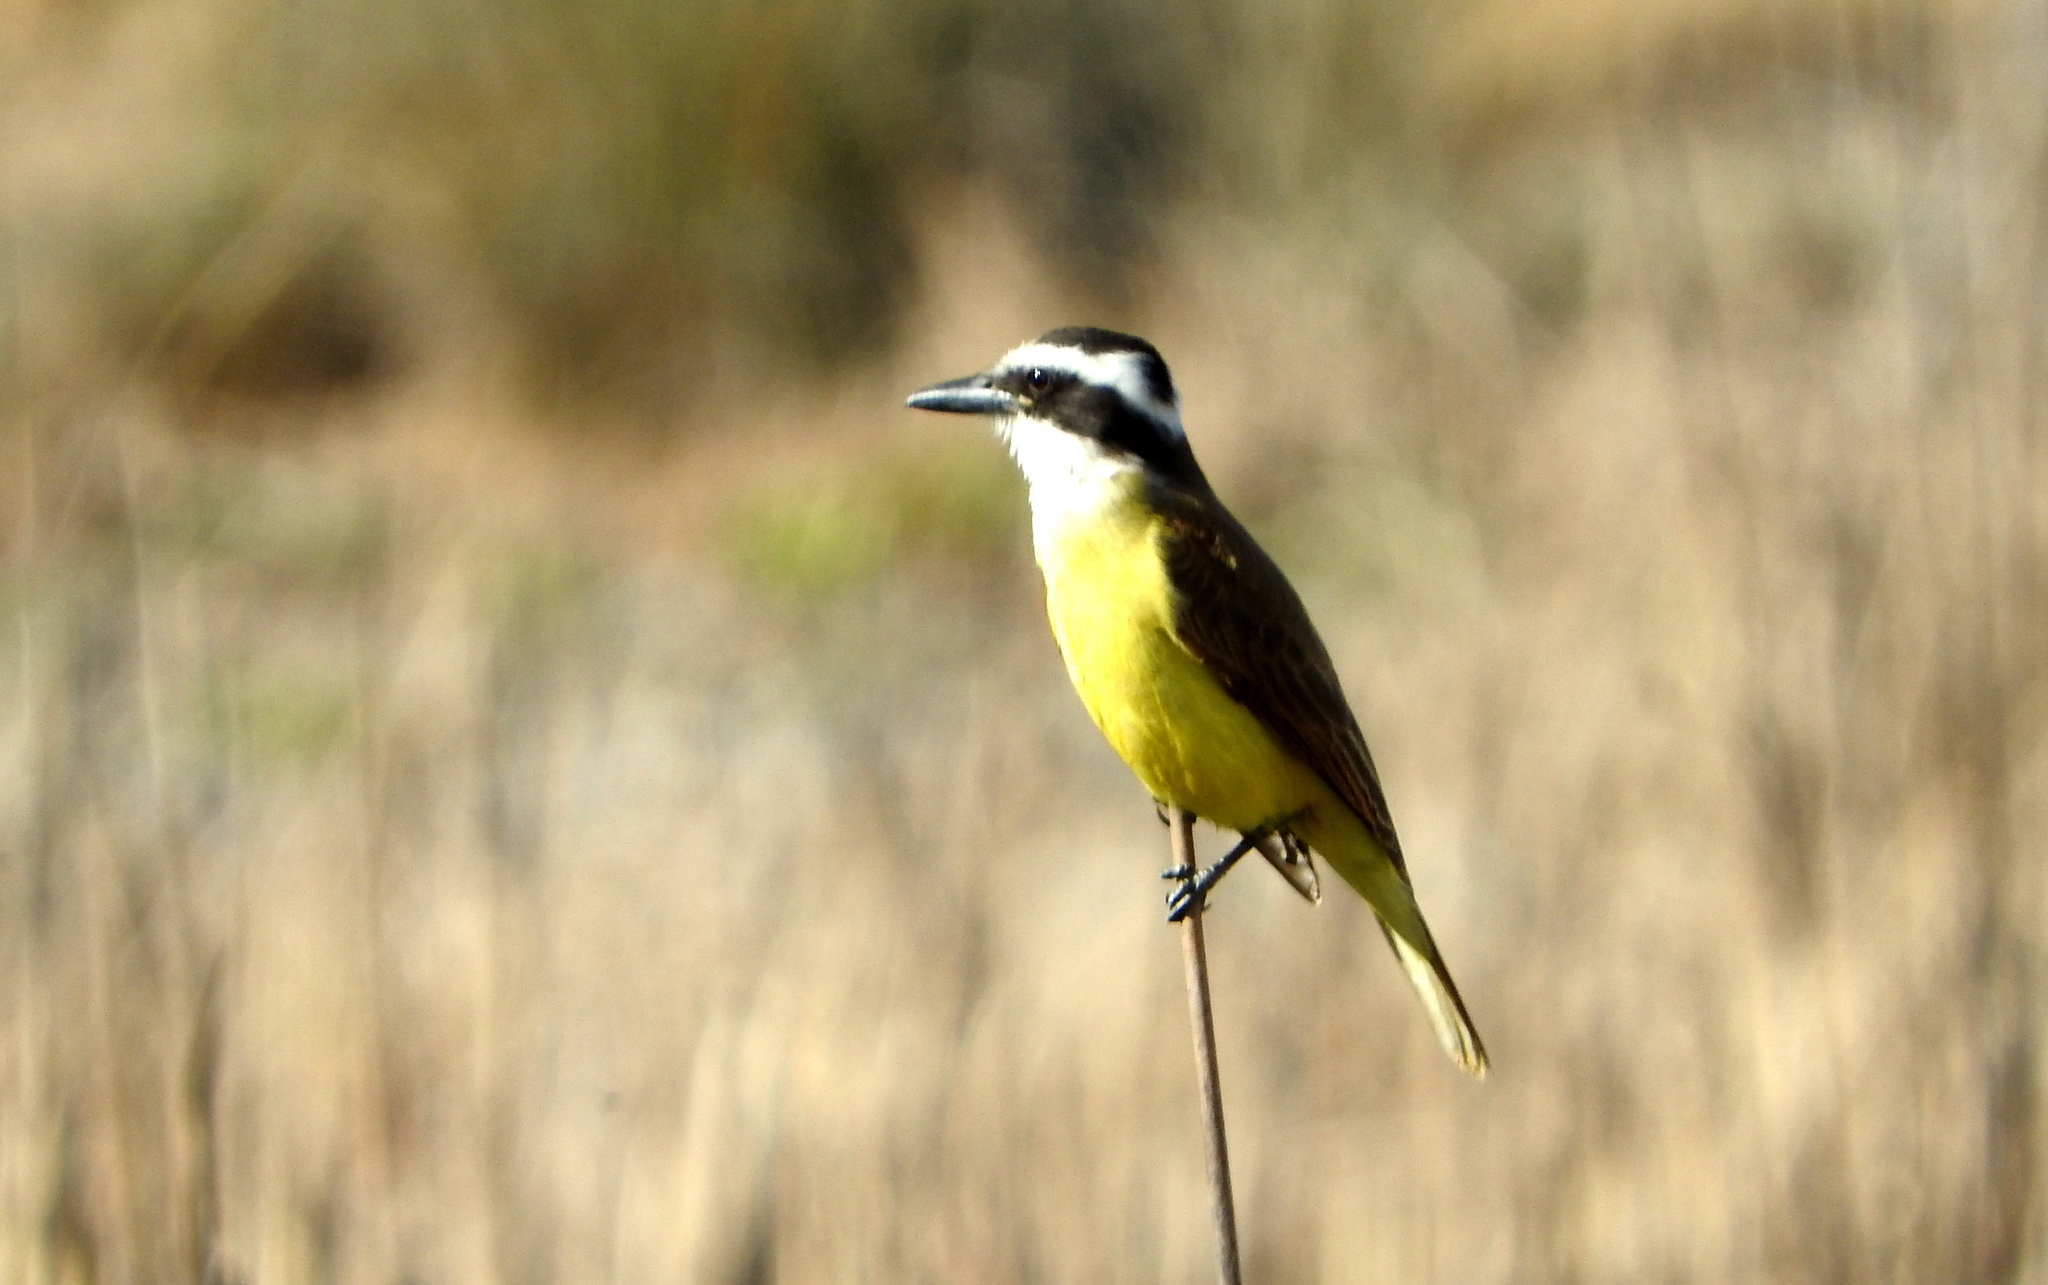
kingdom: Animalia
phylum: Chordata
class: Aves
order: Passeriformes
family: Tyrannidae
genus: Pitangus
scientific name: Pitangus sulphuratus
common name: Great kiskadee
